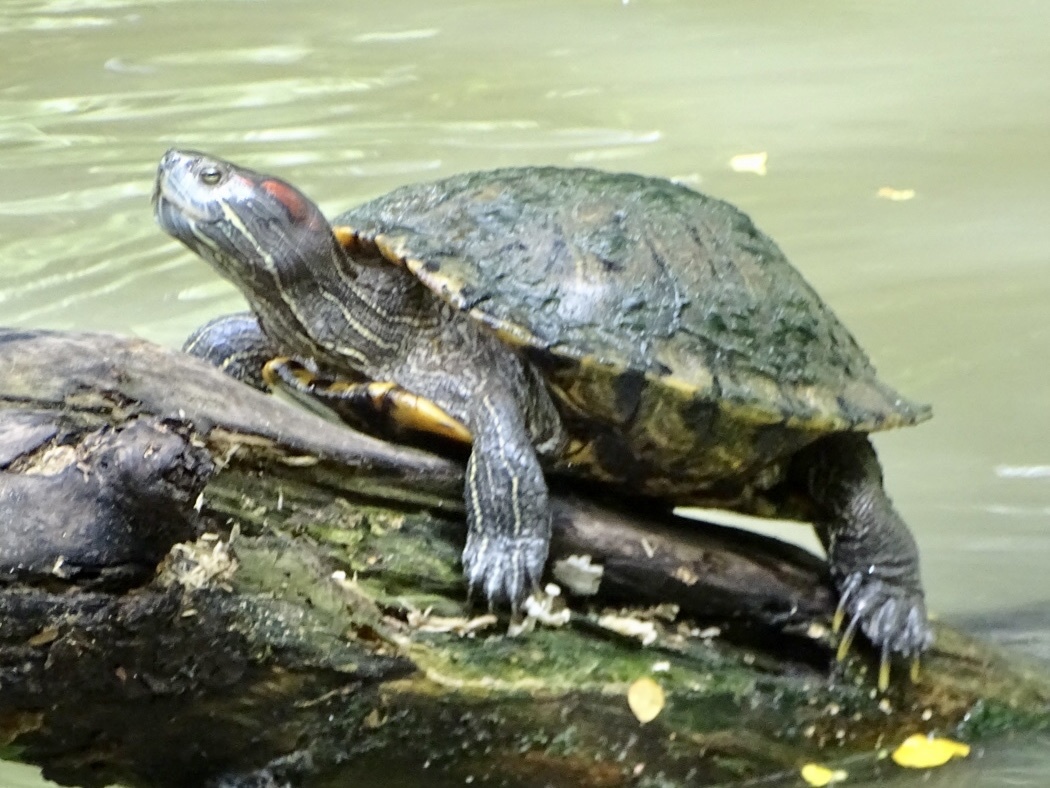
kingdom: Animalia
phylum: Chordata
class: Testudines
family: Emydidae
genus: Trachemys
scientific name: Trachemys scripta
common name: Slider
